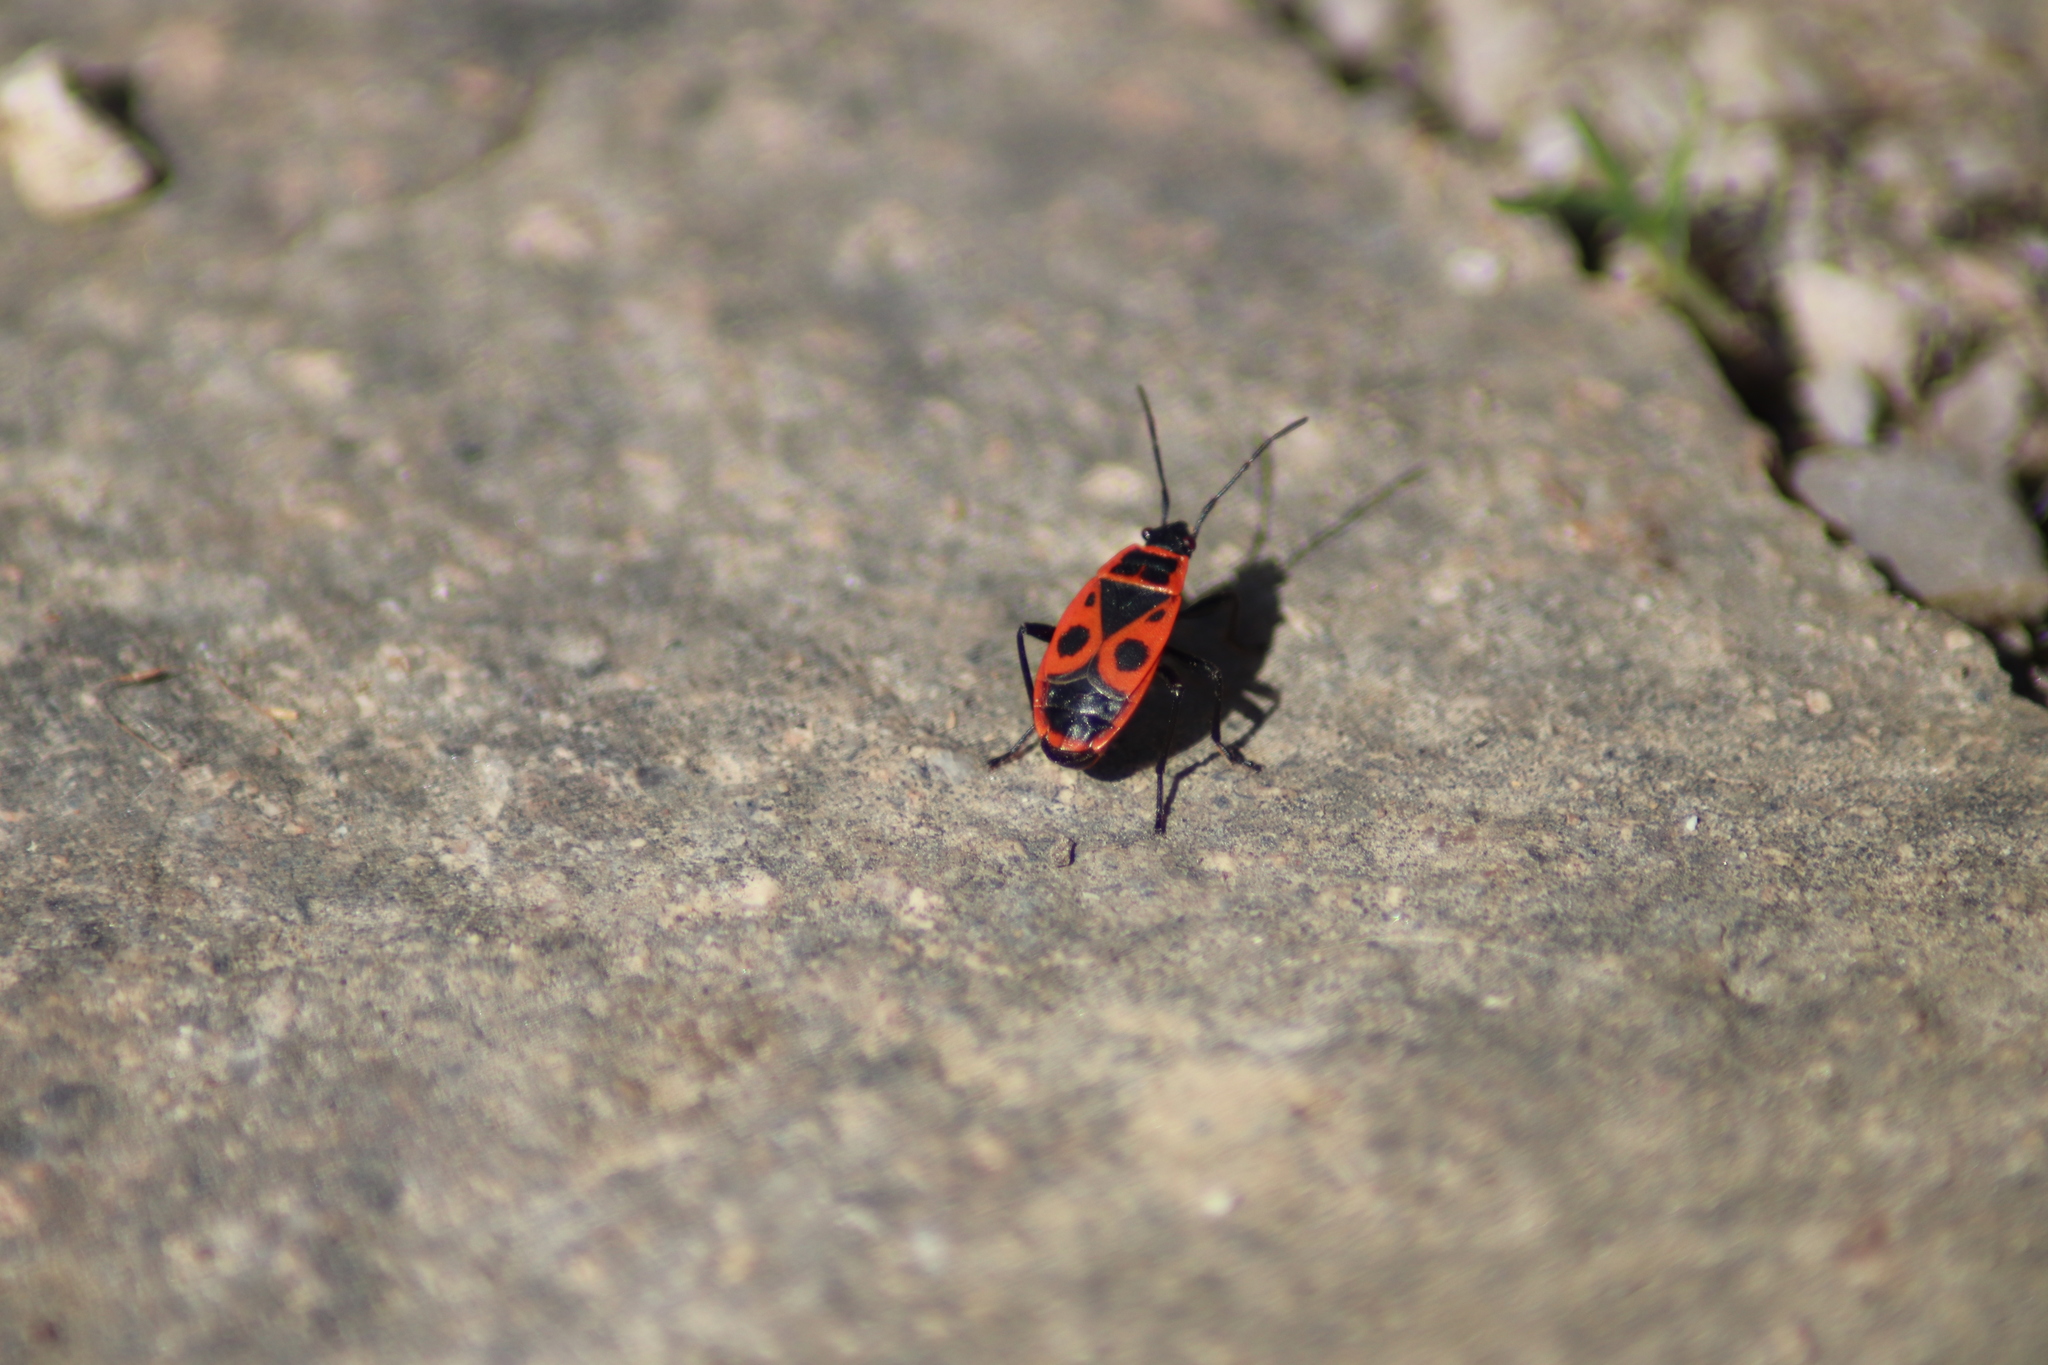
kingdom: Animalia
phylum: Arthropoda
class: Insecta
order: Hemiptera
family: Pyrrhocoridae
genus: Pyrrhocoris
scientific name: Pyrrhocoris apterus
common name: Firebug
